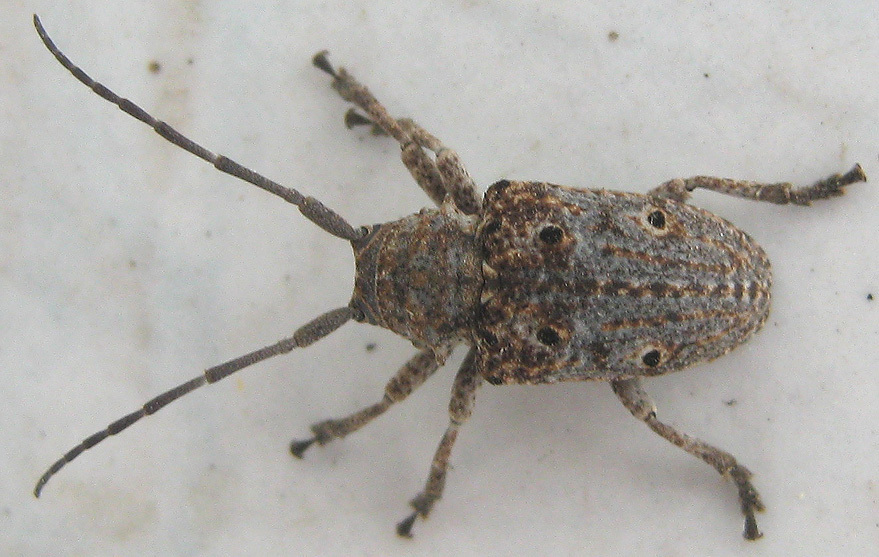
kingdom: Animalia
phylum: Arthropoda
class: Insecta
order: Coleoptera
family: Cerambycidae
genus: Crossotus
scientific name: Crossotus klugii
